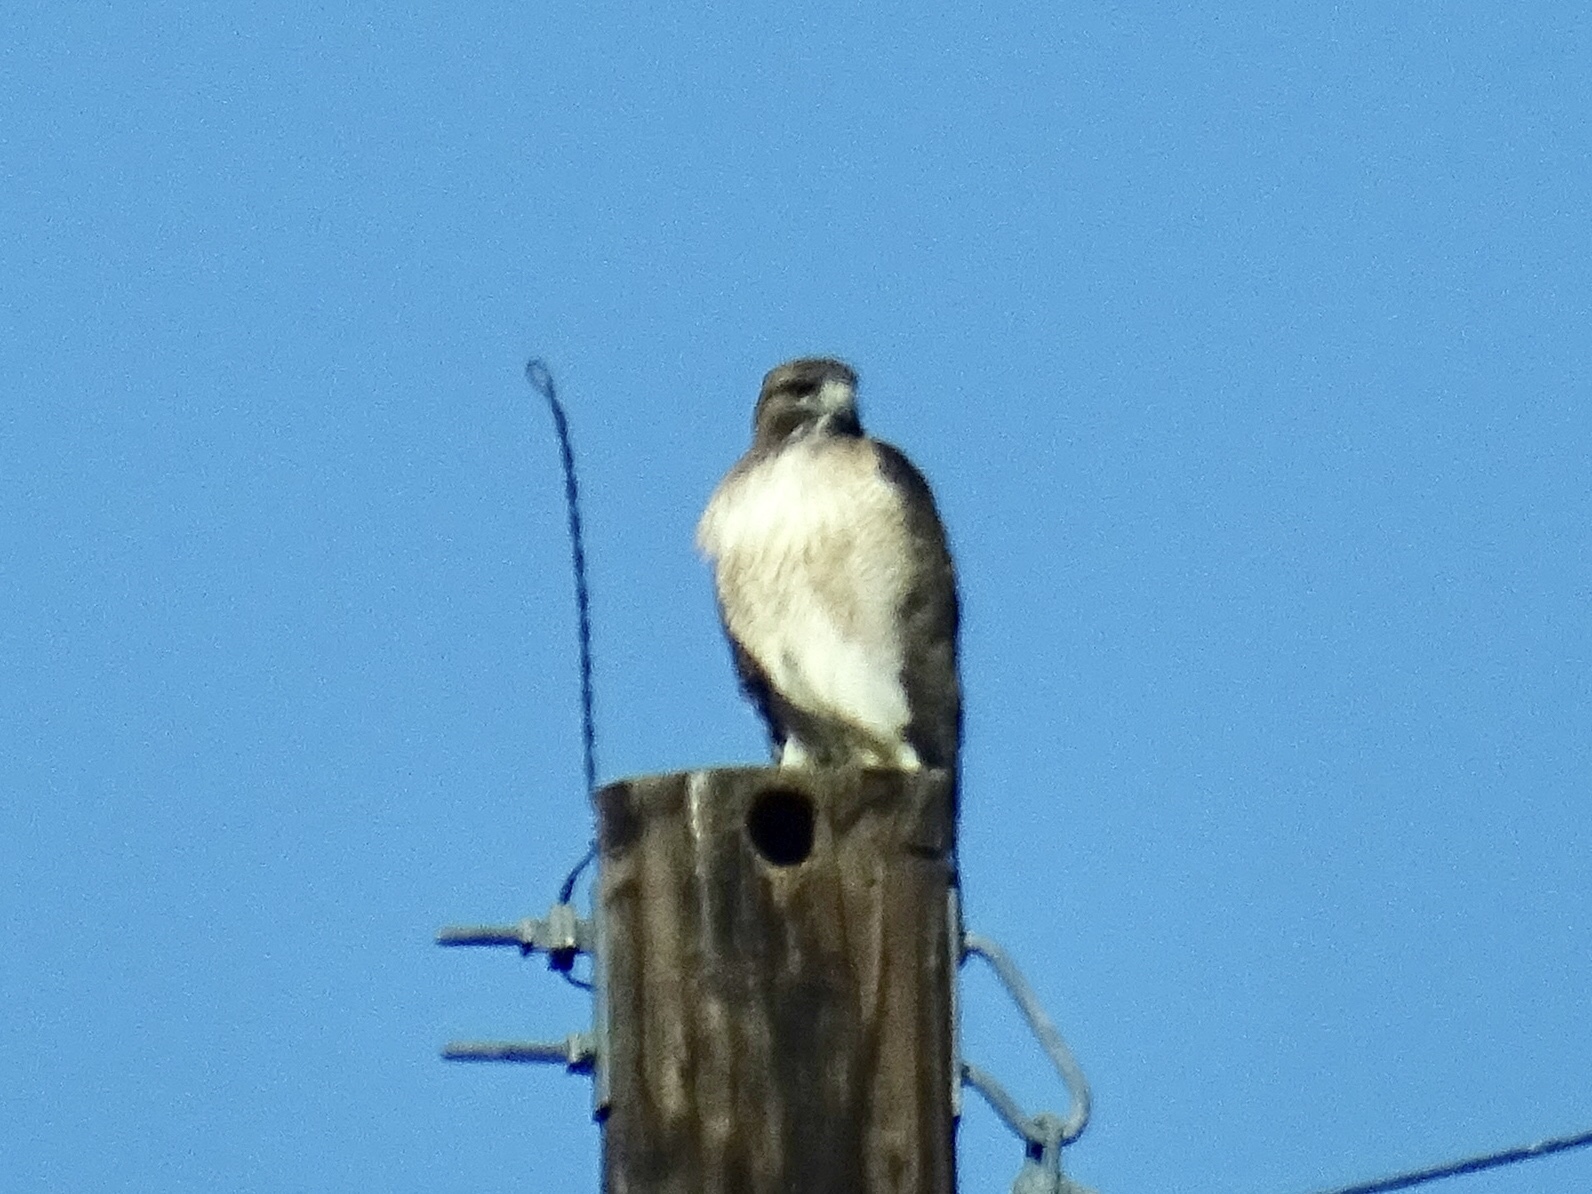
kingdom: Animalia
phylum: Chordata
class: Aves
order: Accipitriformes
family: Accipitridae
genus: Buteo
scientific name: Buteo jamaicensis
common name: Red-tailed hawk
